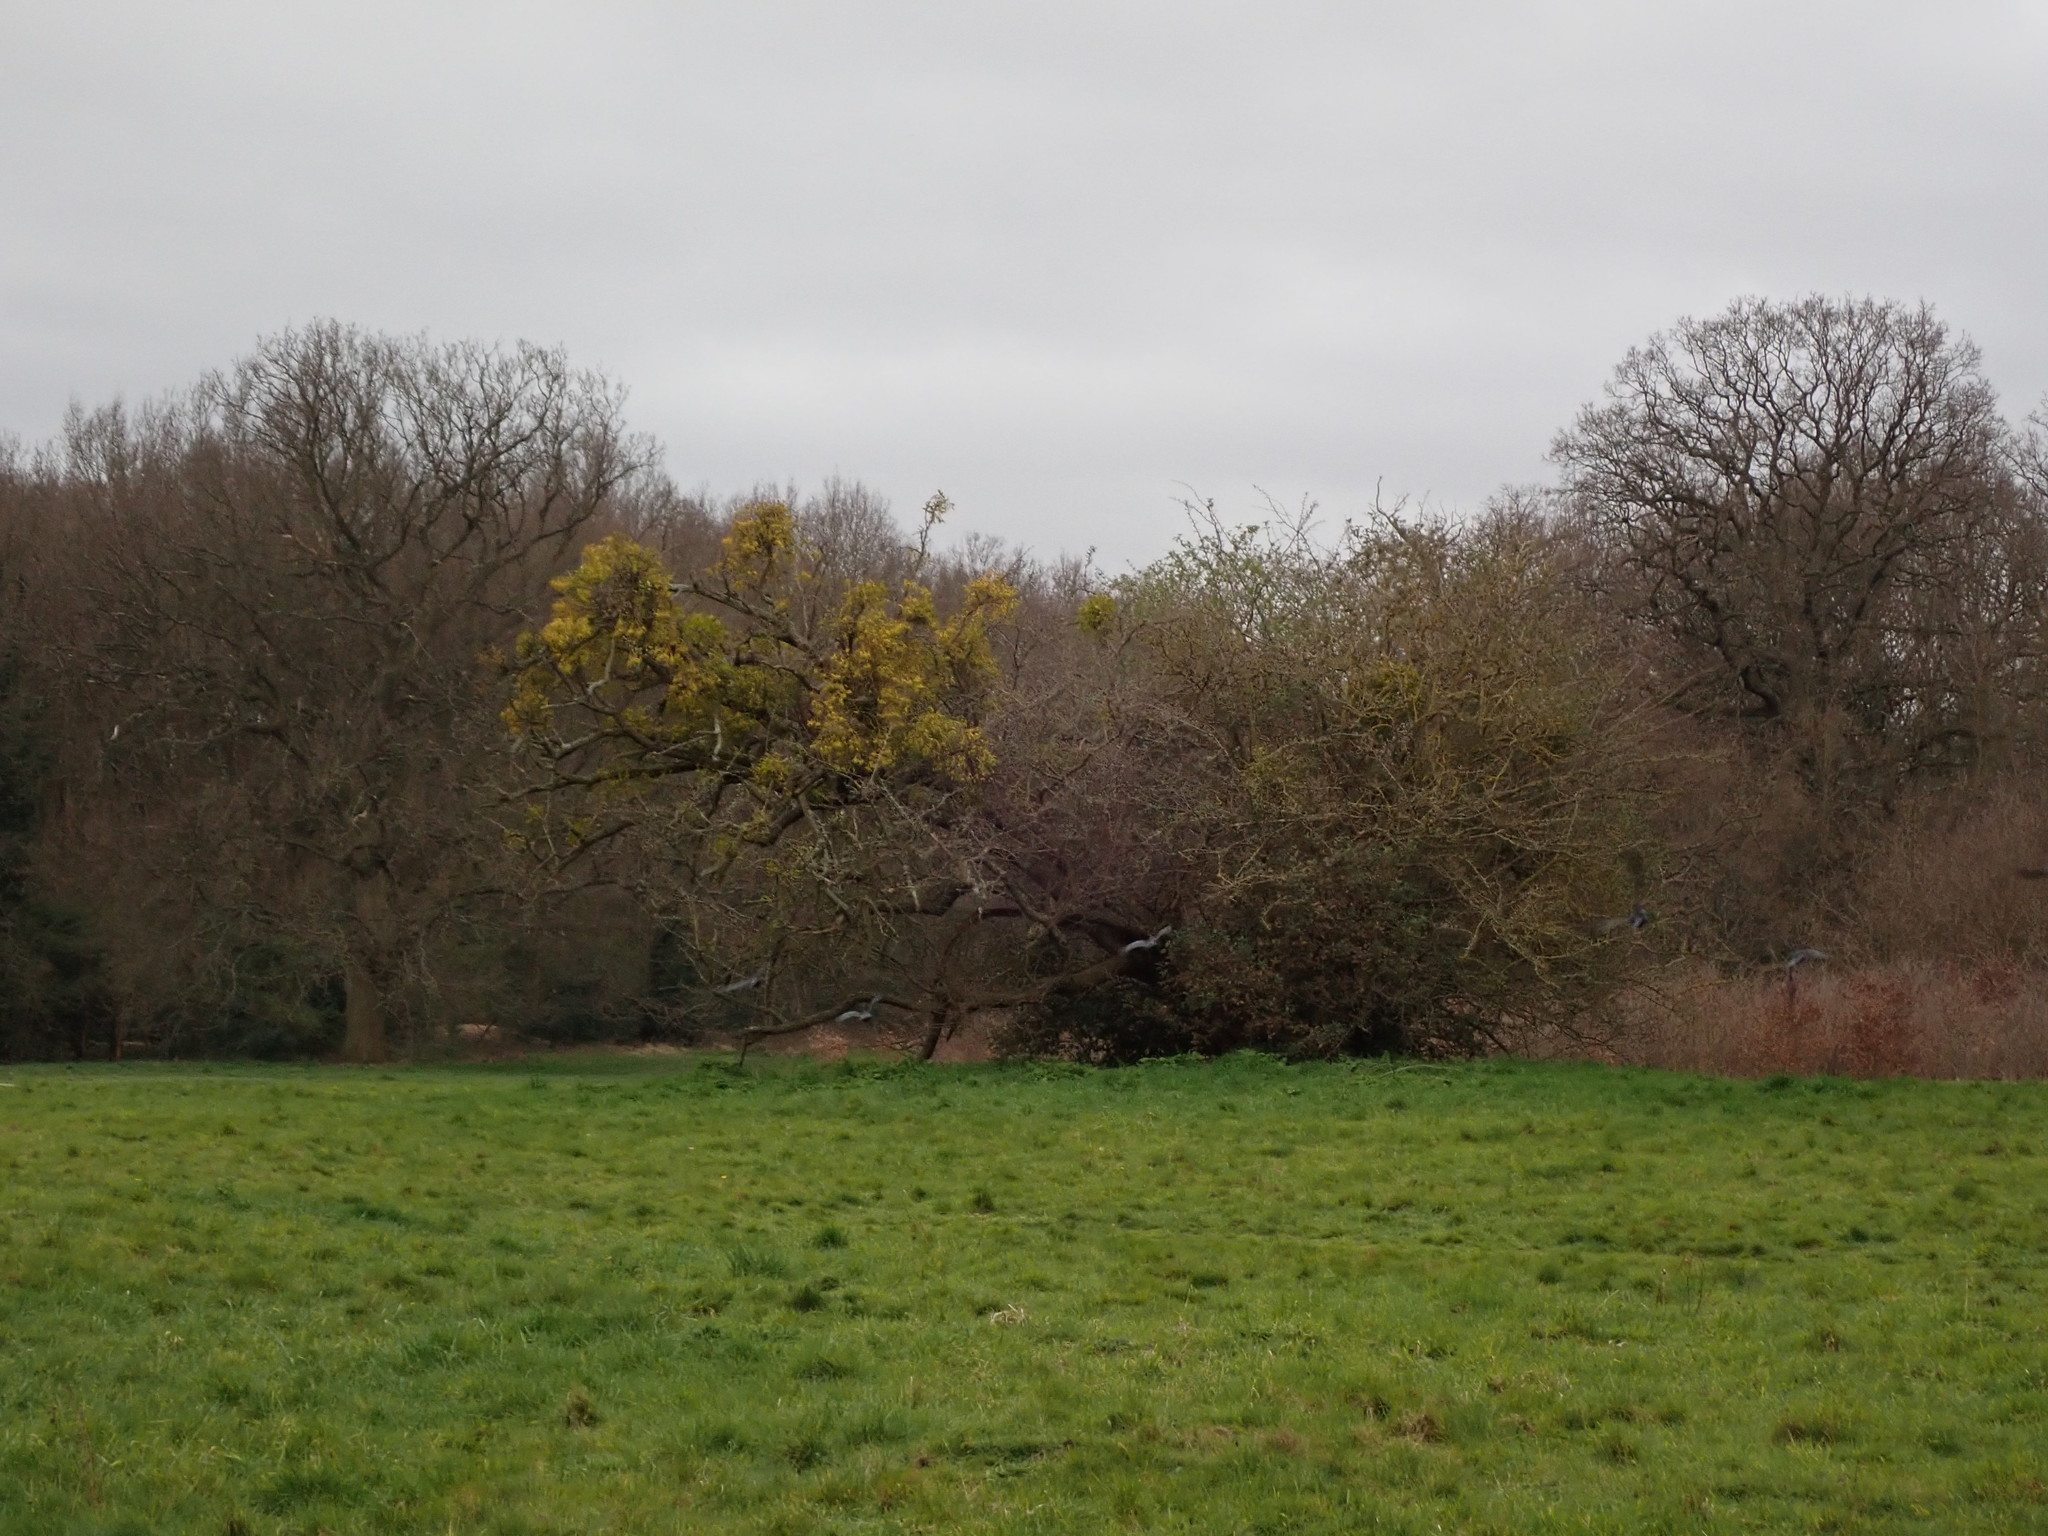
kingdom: Plantae
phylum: Tracheophyta
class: Magnoliopsida
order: Santalales
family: Viscaceae
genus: Viscum
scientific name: Viscum album
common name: Mistletoe
